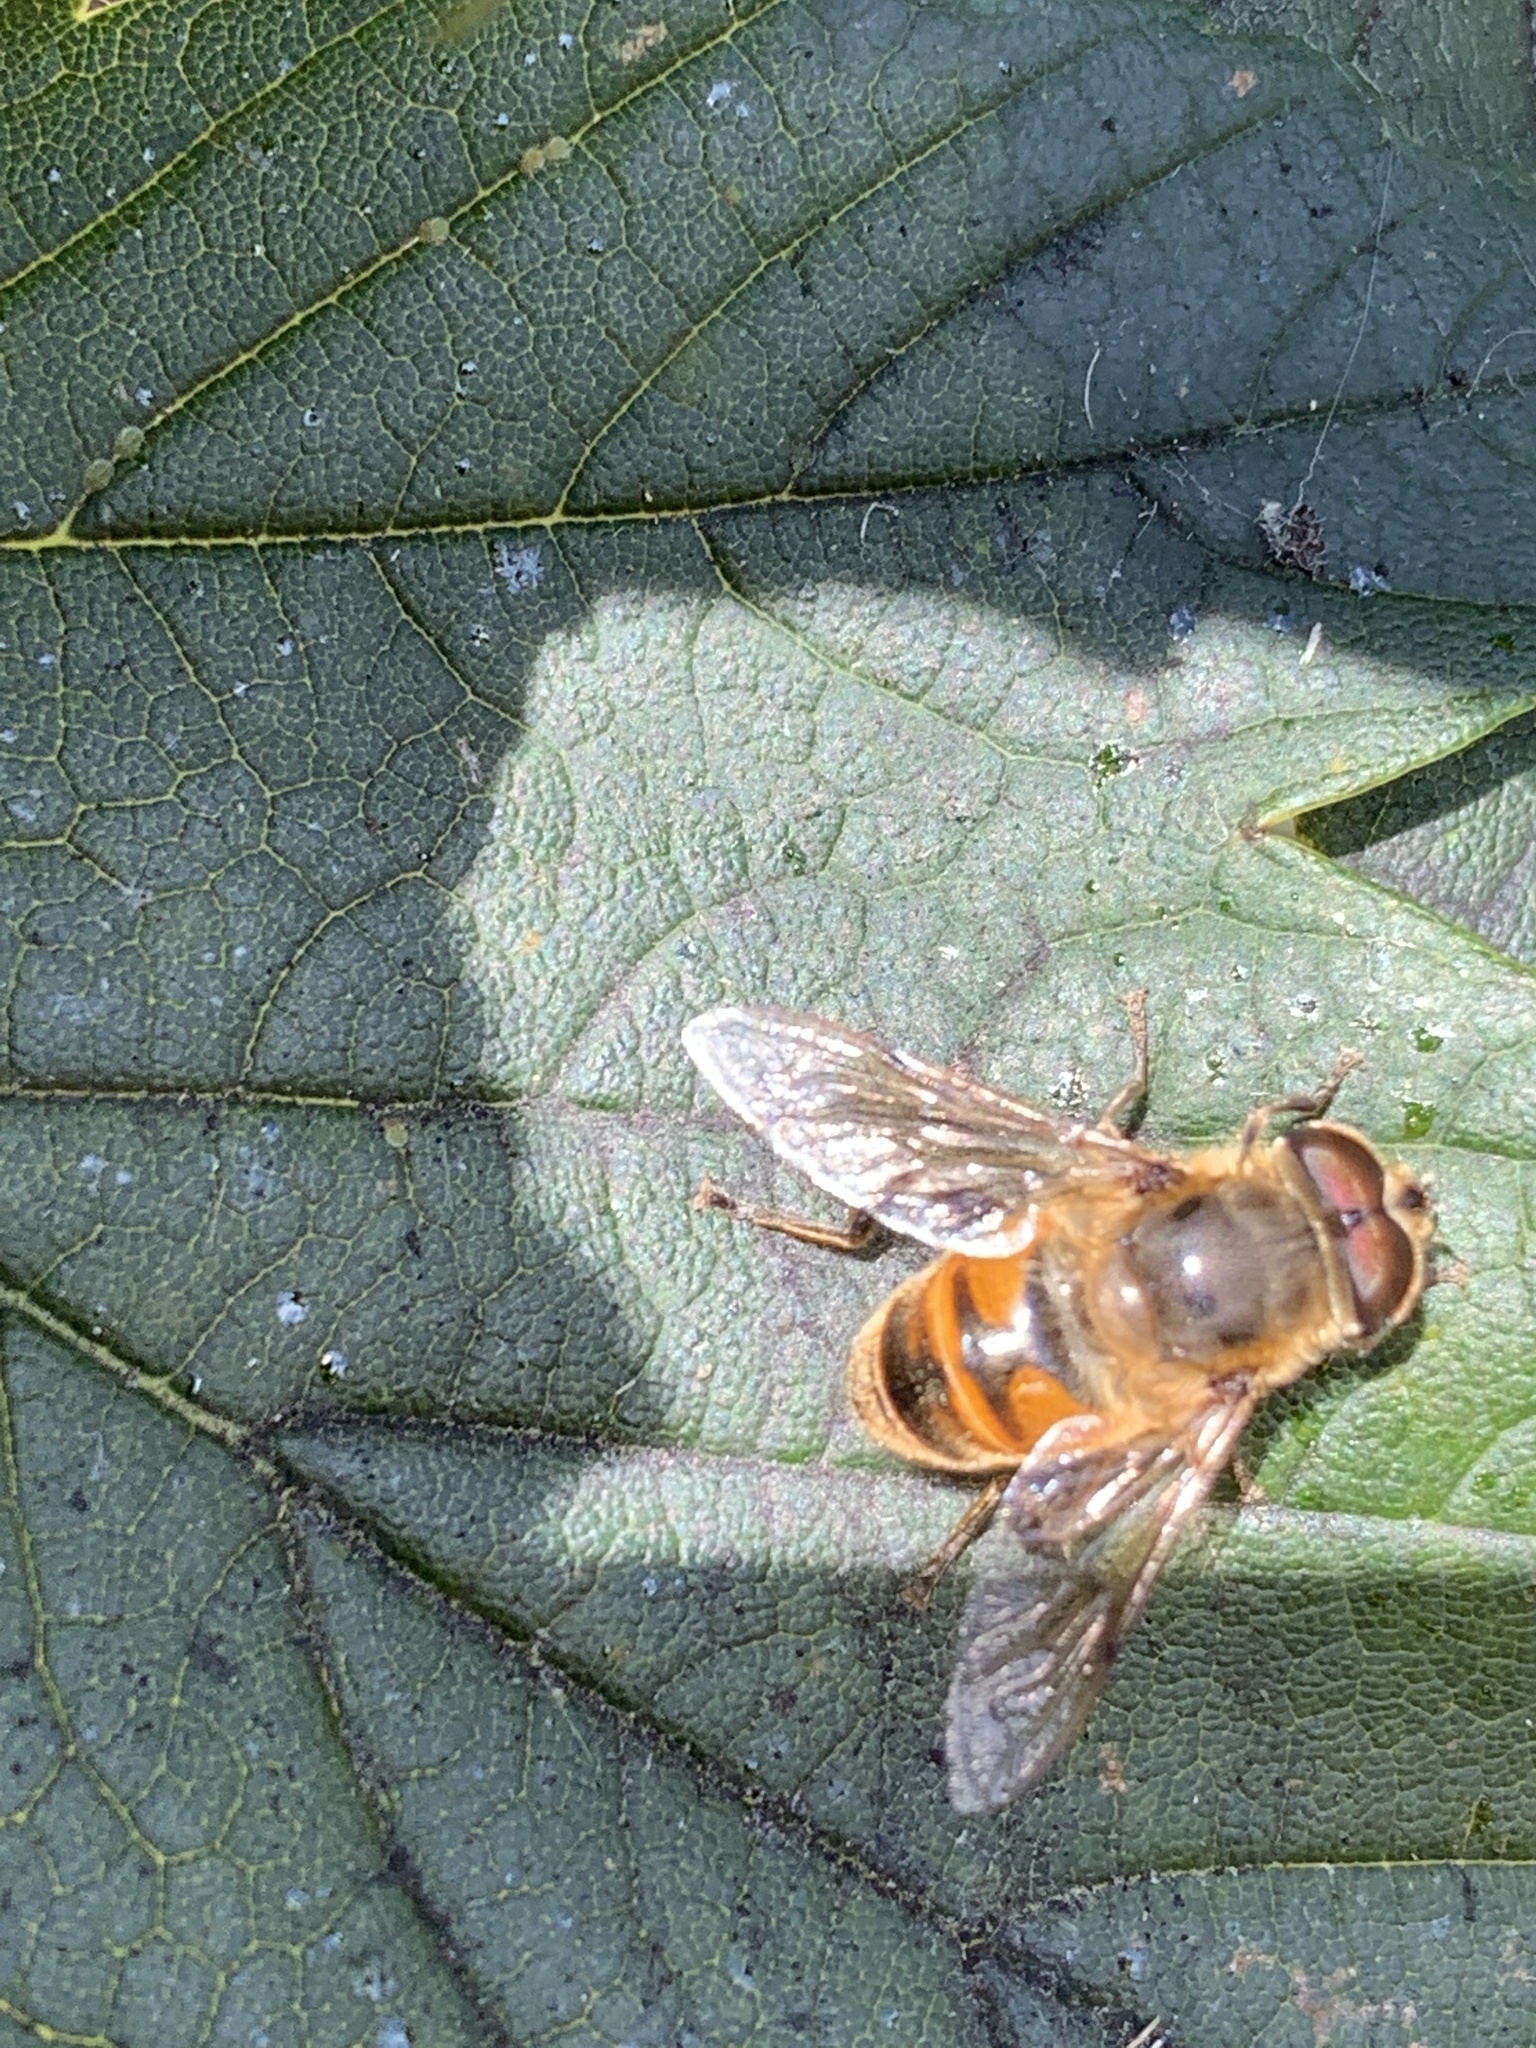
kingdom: Animalia
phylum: Arthropoda
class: Insecta
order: Diptera
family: Syrphidae
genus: Eristalis
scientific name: Eristalis tenax
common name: Drone fly
